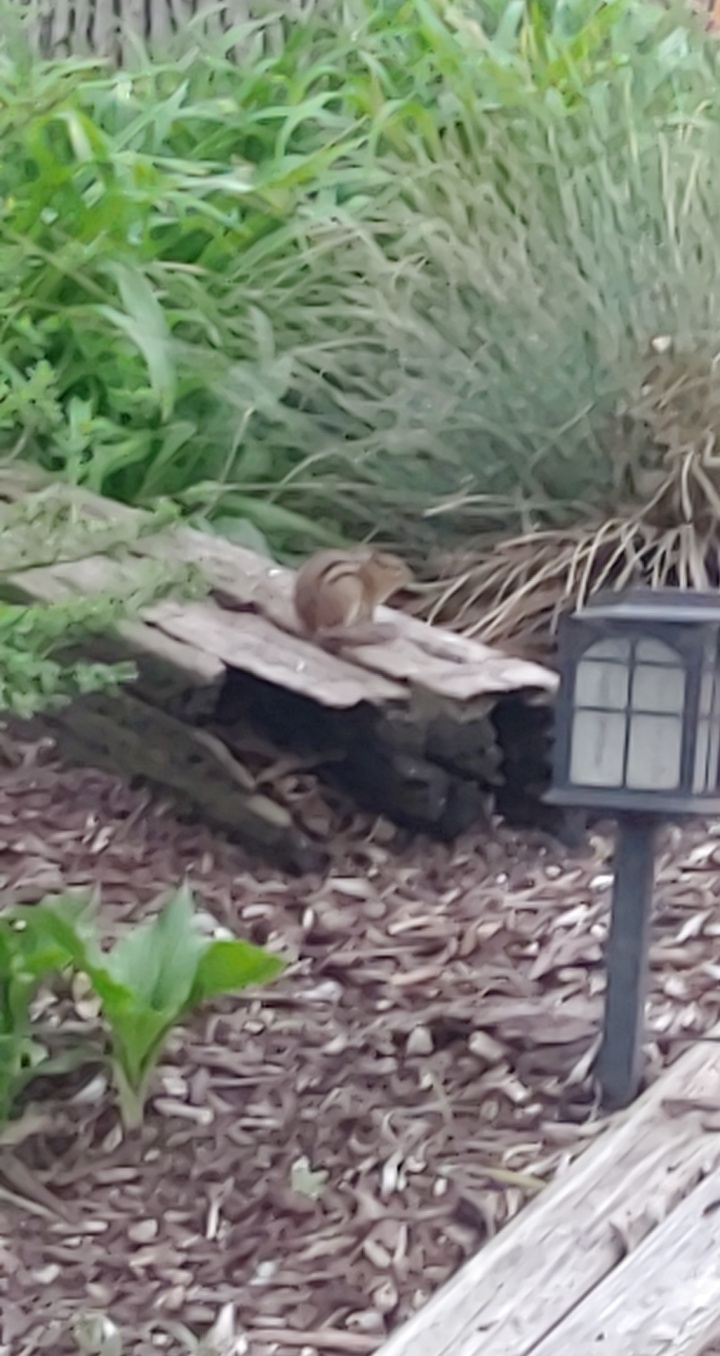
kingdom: Animalia
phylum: Chordata
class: Mammalia
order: Rodentia
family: Sciuridae
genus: Tamias
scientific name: Tamias striatus
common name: Eastern chipmunk
